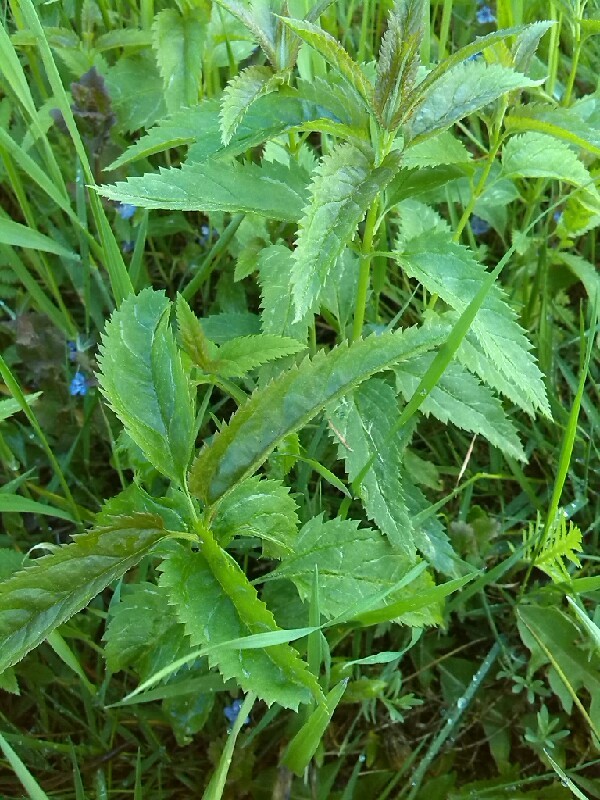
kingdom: Plantae
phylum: Tracheophyta
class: Magnoliopsida
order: Lamiales
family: Plantaginaceae
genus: Veronica
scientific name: Veronica longifolia
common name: Garden speedwell
